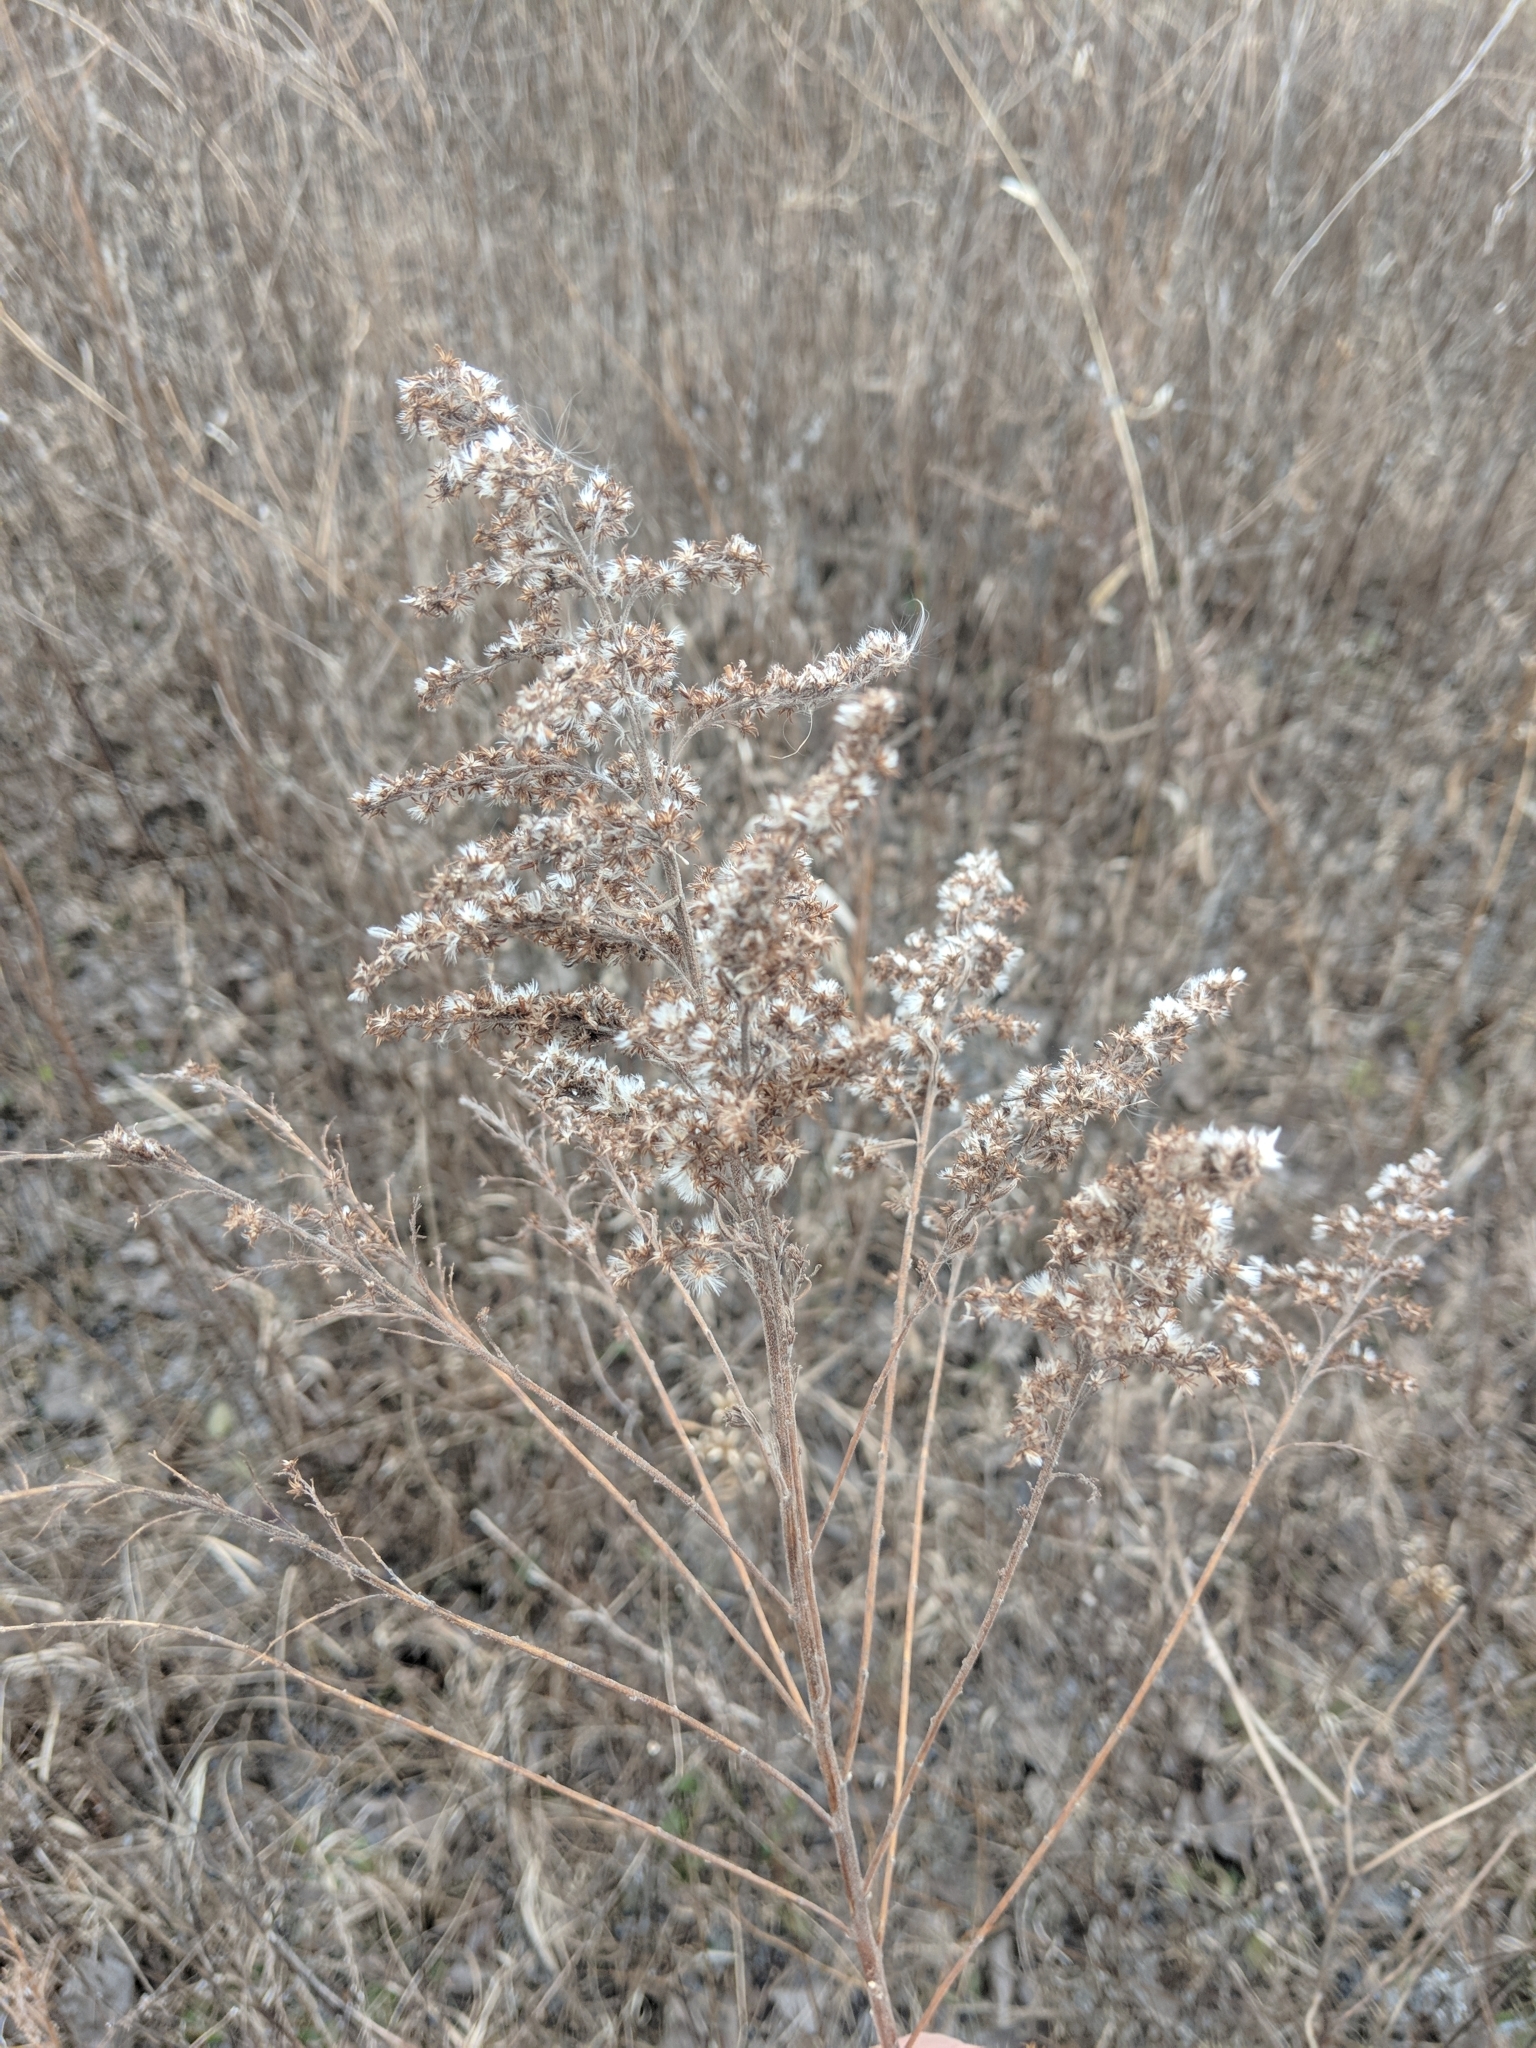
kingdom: Plantae
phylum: Tracheophyta
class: Magnoliopsida
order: Asterales
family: Asteraceae
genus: Solidago
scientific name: Solidago canadensis
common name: Canada goldenrod
